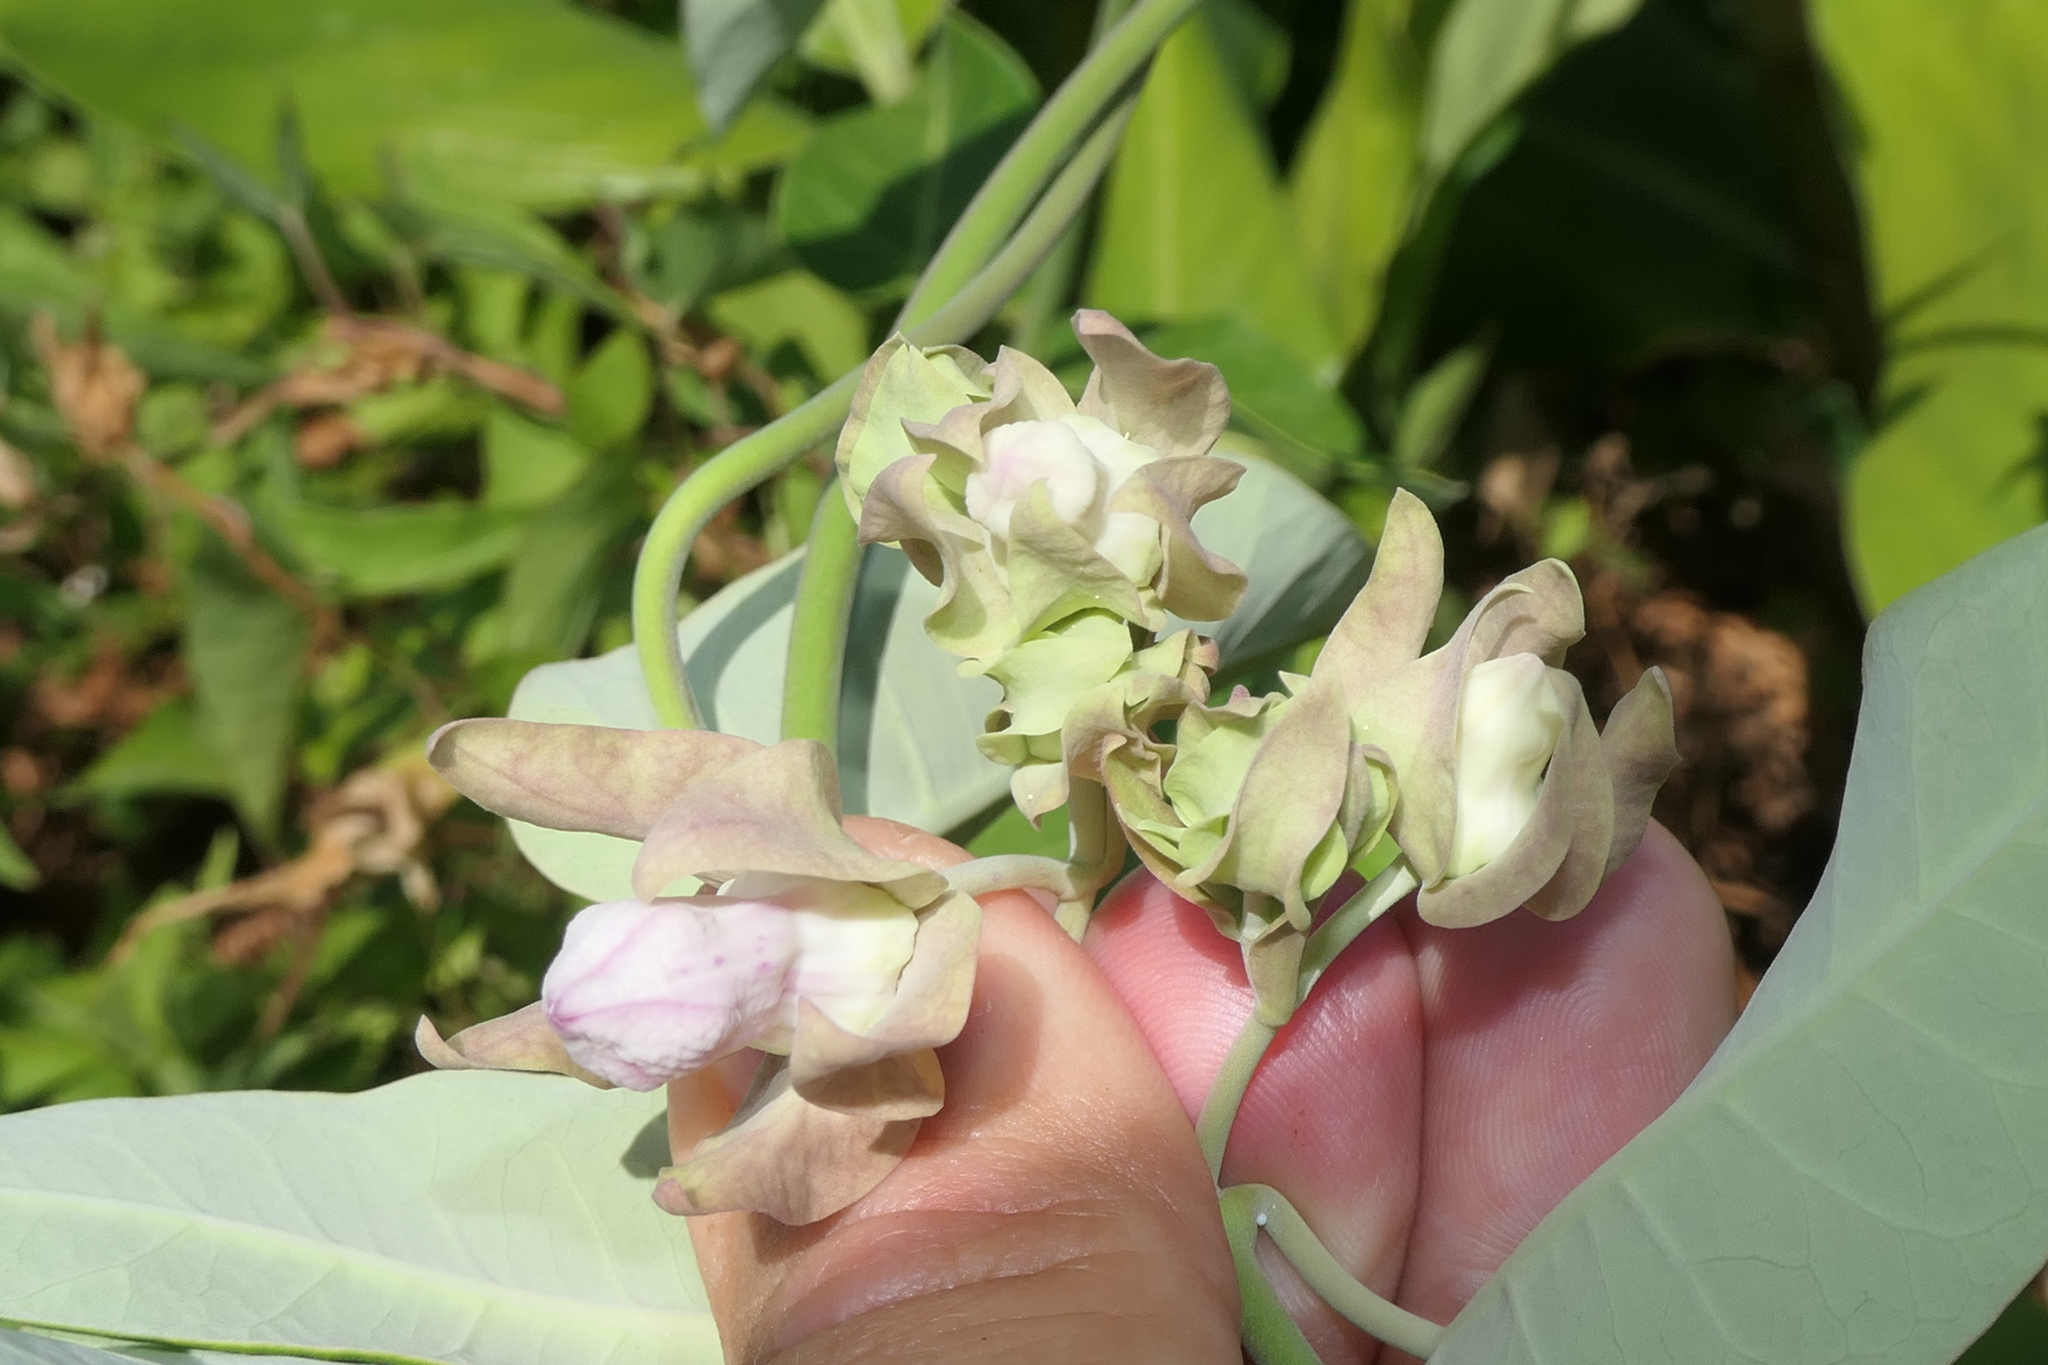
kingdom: Plantae
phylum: Tracheophyta
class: Magnoliopsida
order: Gentianales
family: Apocynaceae
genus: Araujia
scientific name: Araujia sericifera
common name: White bladderflower
